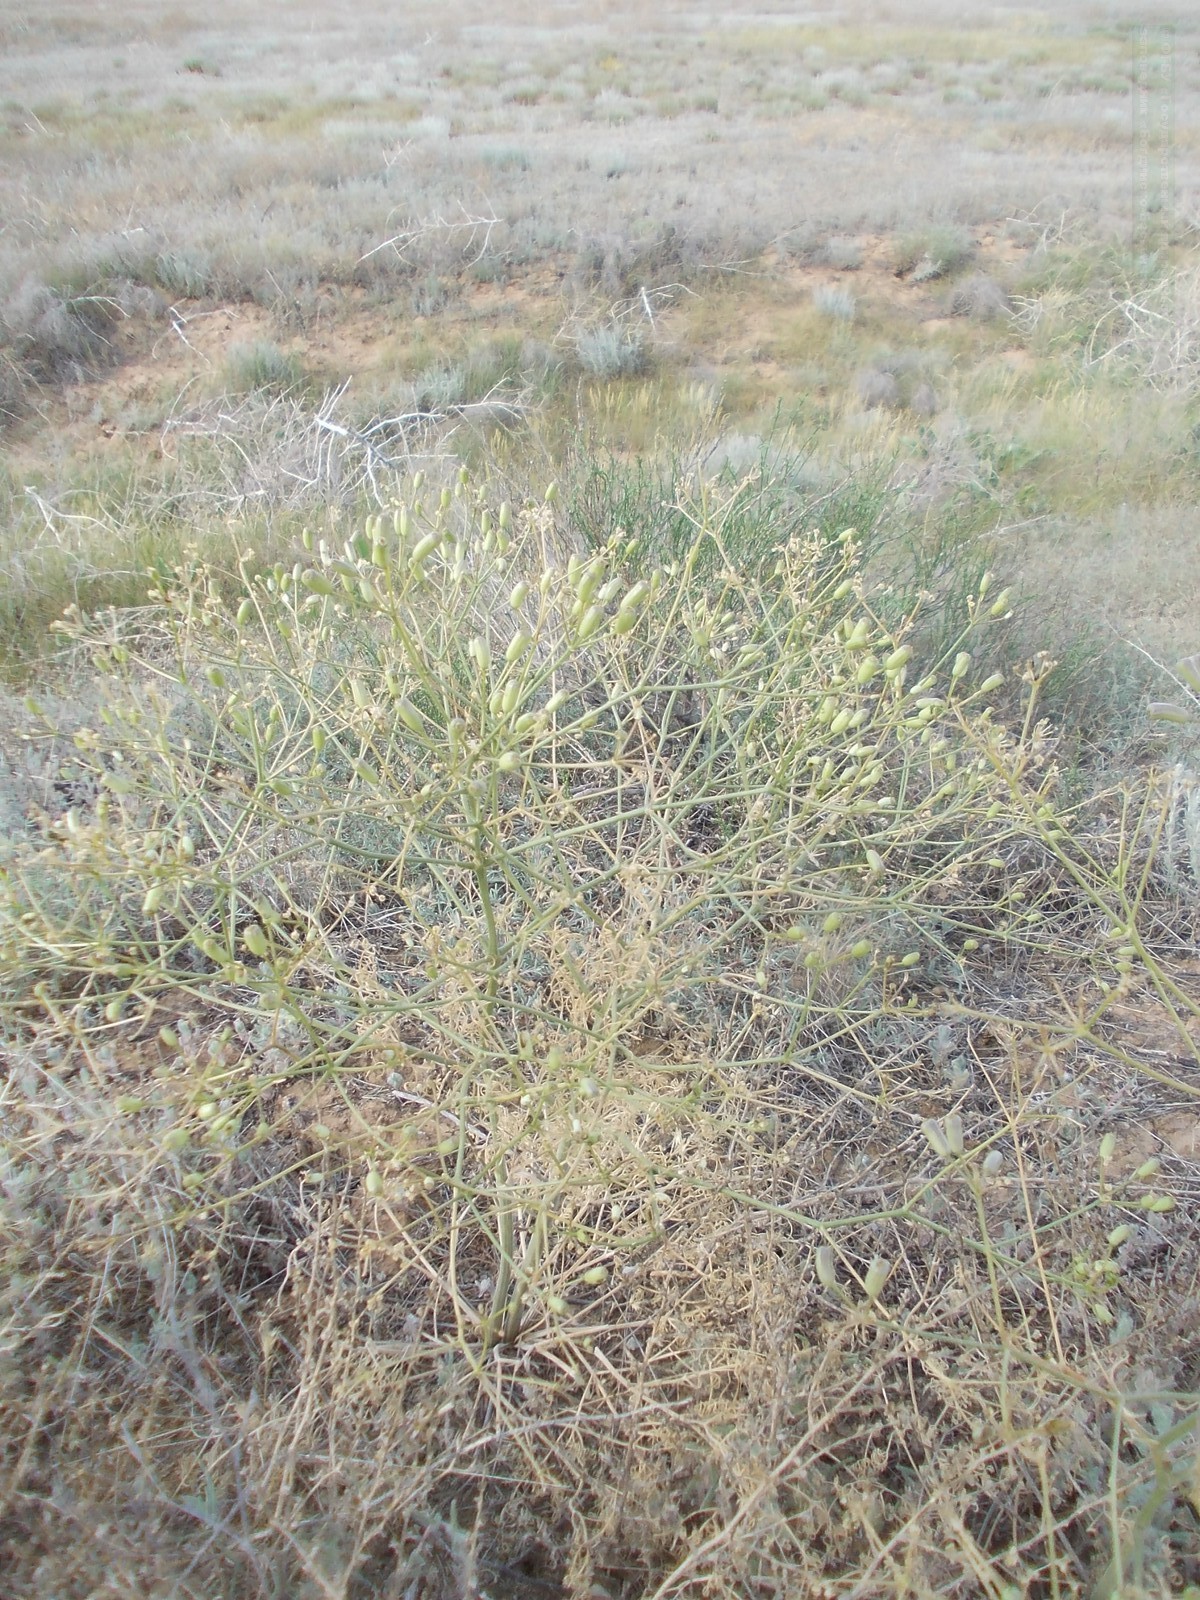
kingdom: Plantae
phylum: Tracheophyta
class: Magnoliopsida
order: Apiales
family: Apiaceae
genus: Prangos
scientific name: Prangos odontalgica
